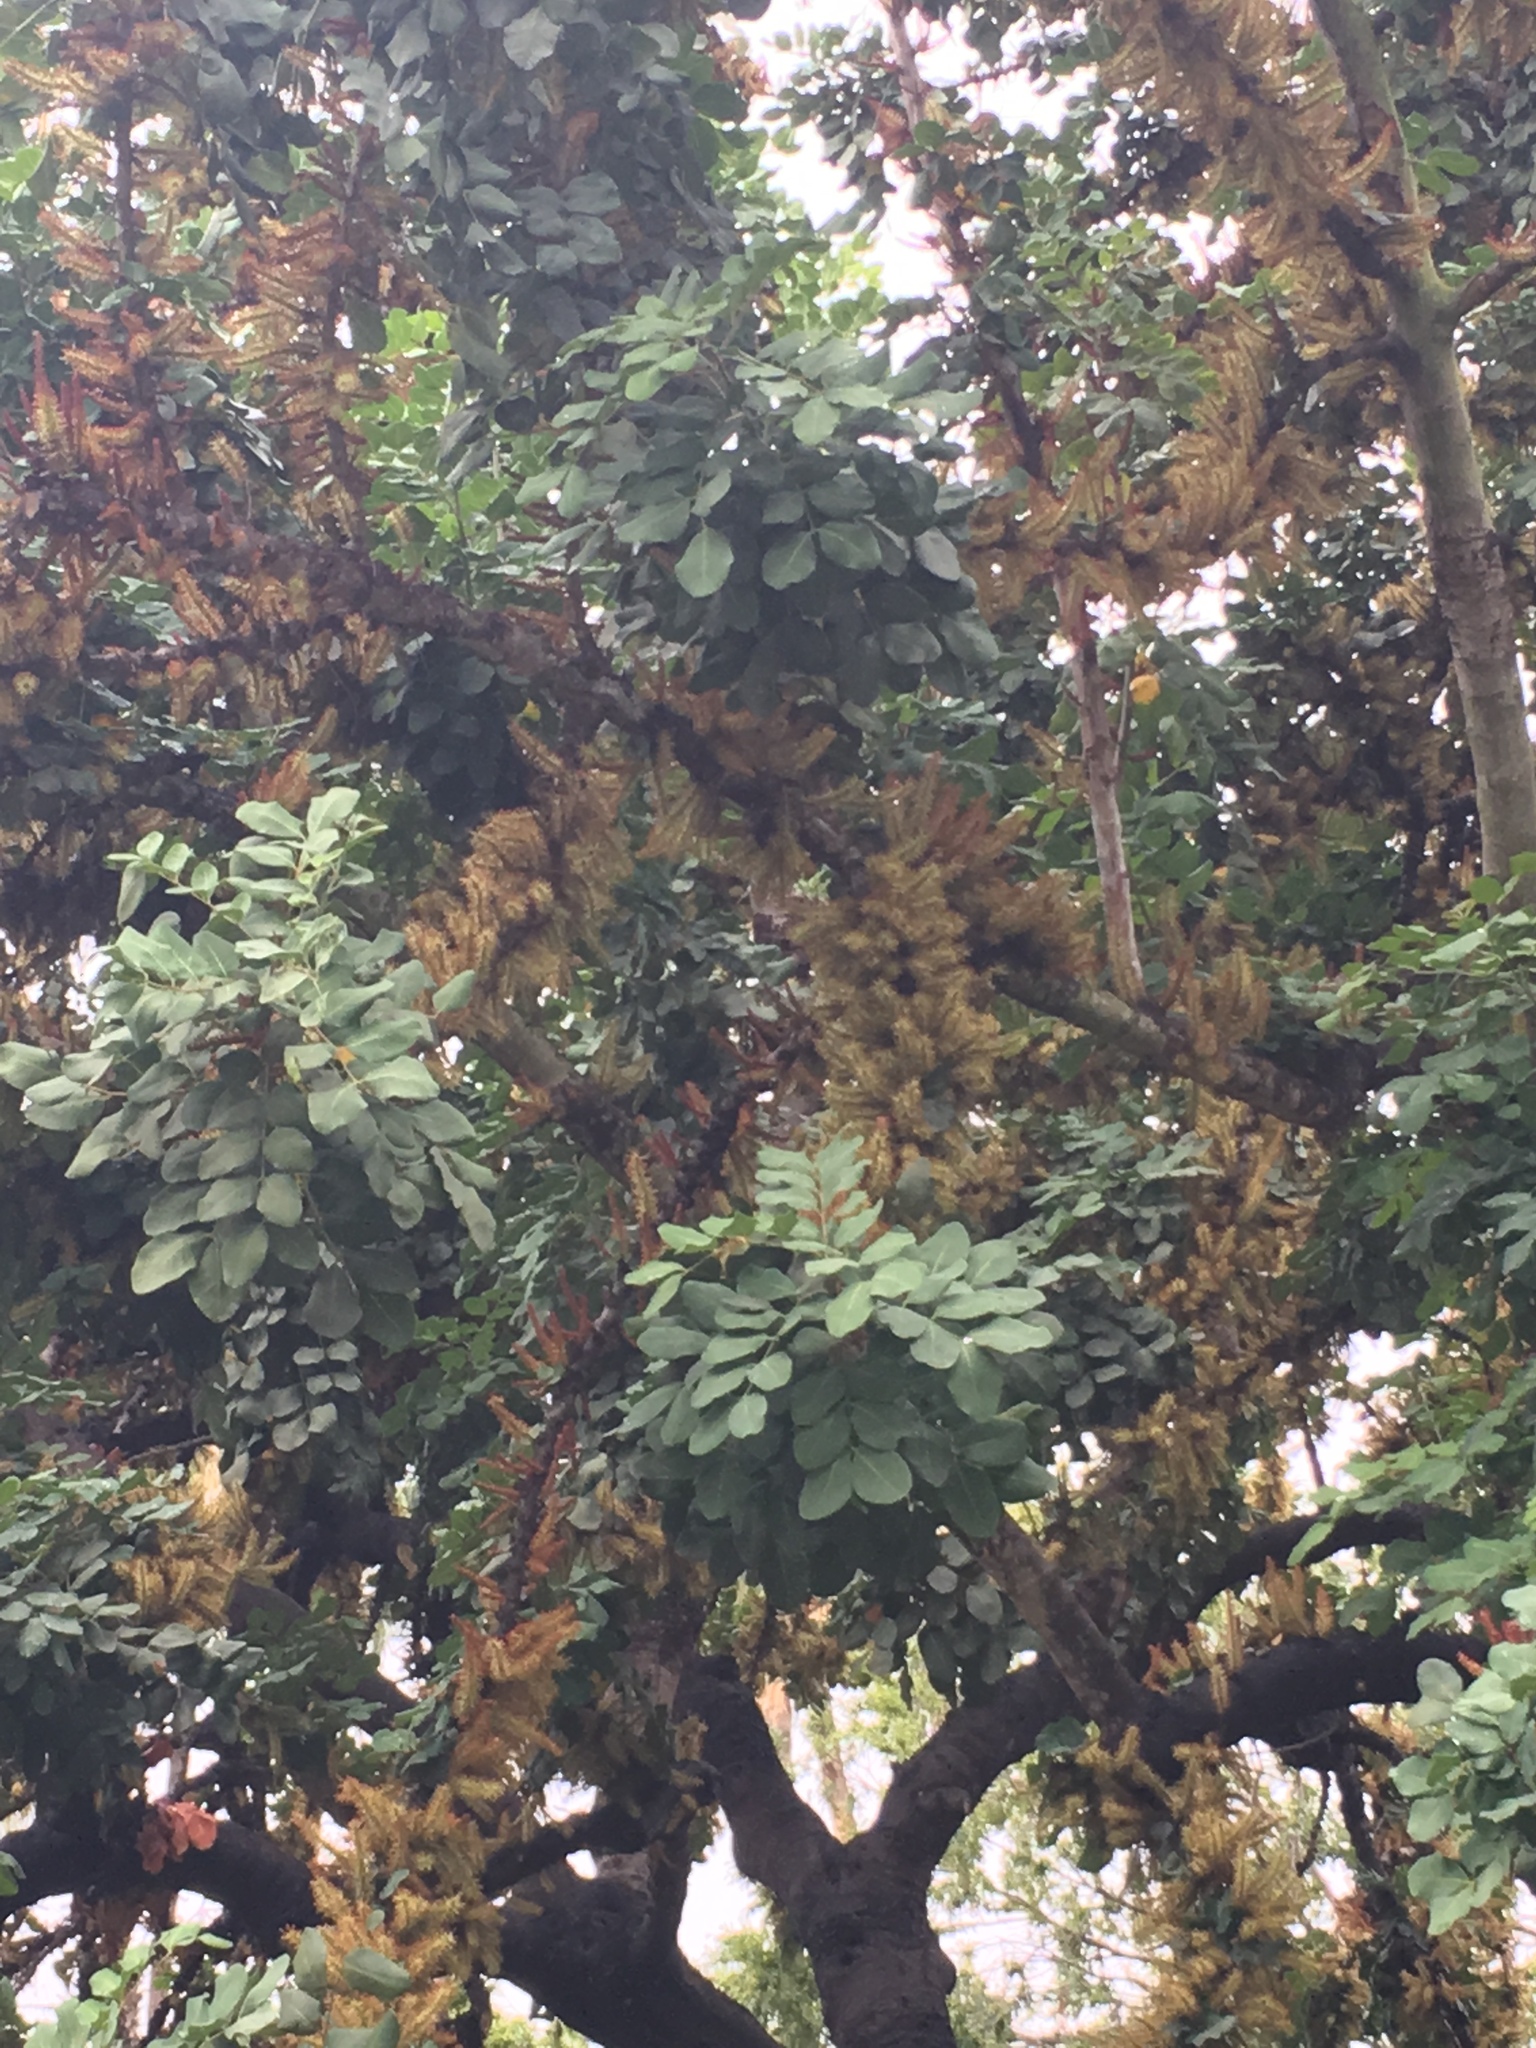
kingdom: Plantae
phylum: Tracheophyta
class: Magnoliopsida
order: Fabales
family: Fabaceae
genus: Ceratonia
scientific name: Ceratonia siliqua
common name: Carob
